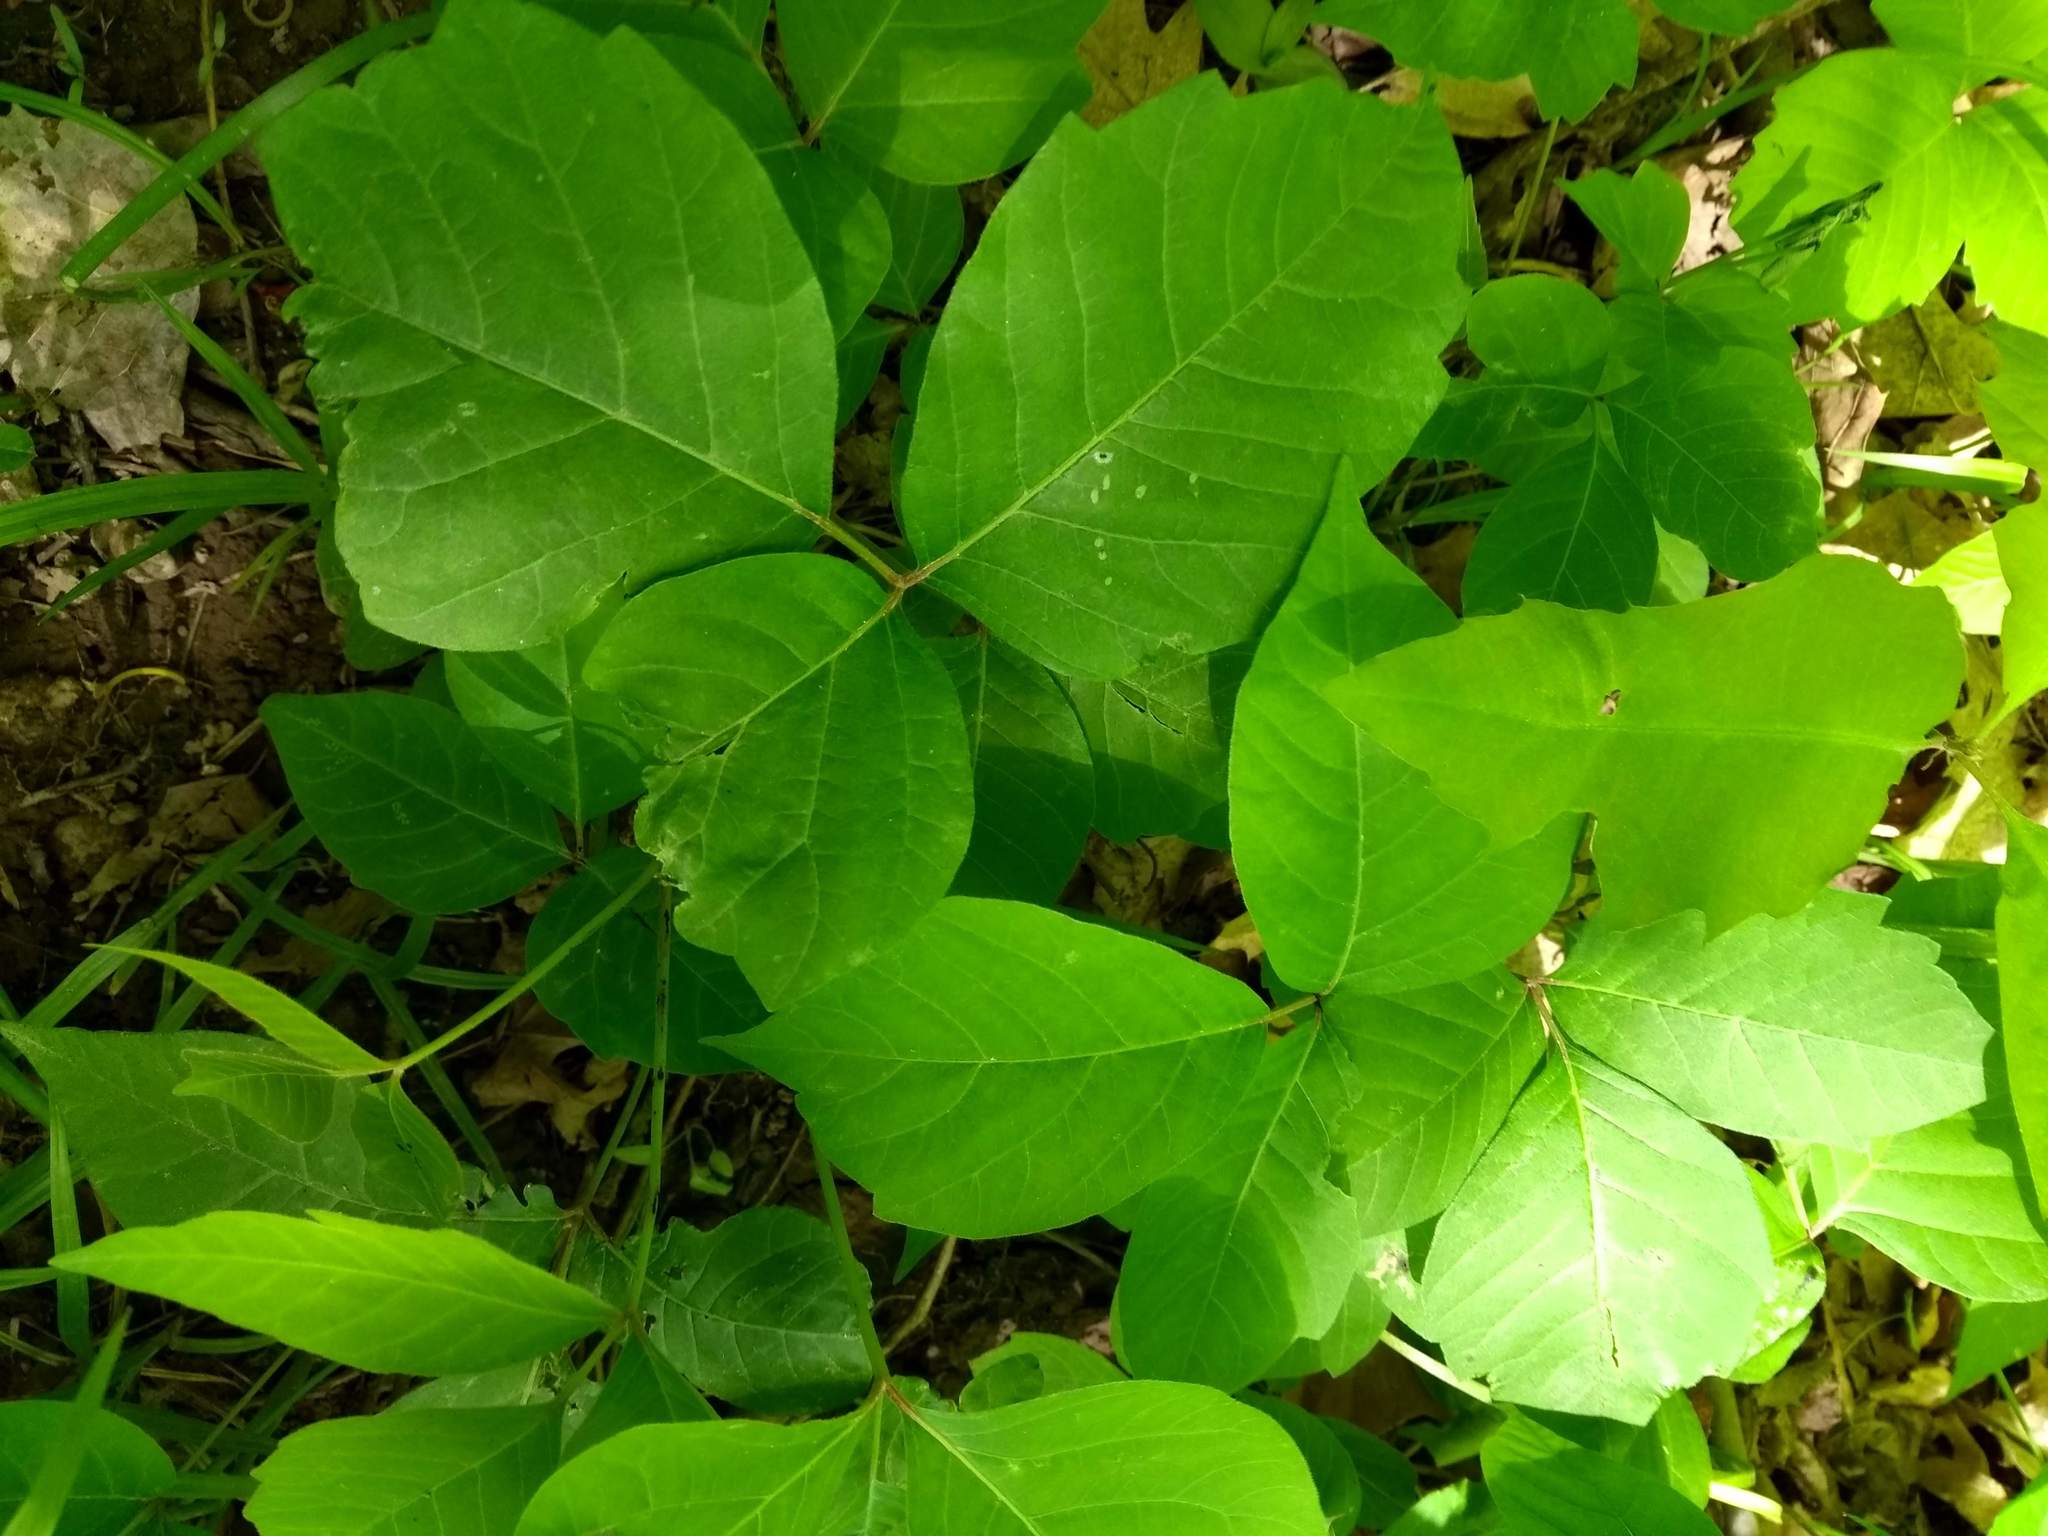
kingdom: Plantae
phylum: Tracheophyta
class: Magnoliopsida
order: Sapindales
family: Anacardiaceae
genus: Toxicodendron
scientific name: Toxicodendron radicans
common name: Poison ivy
